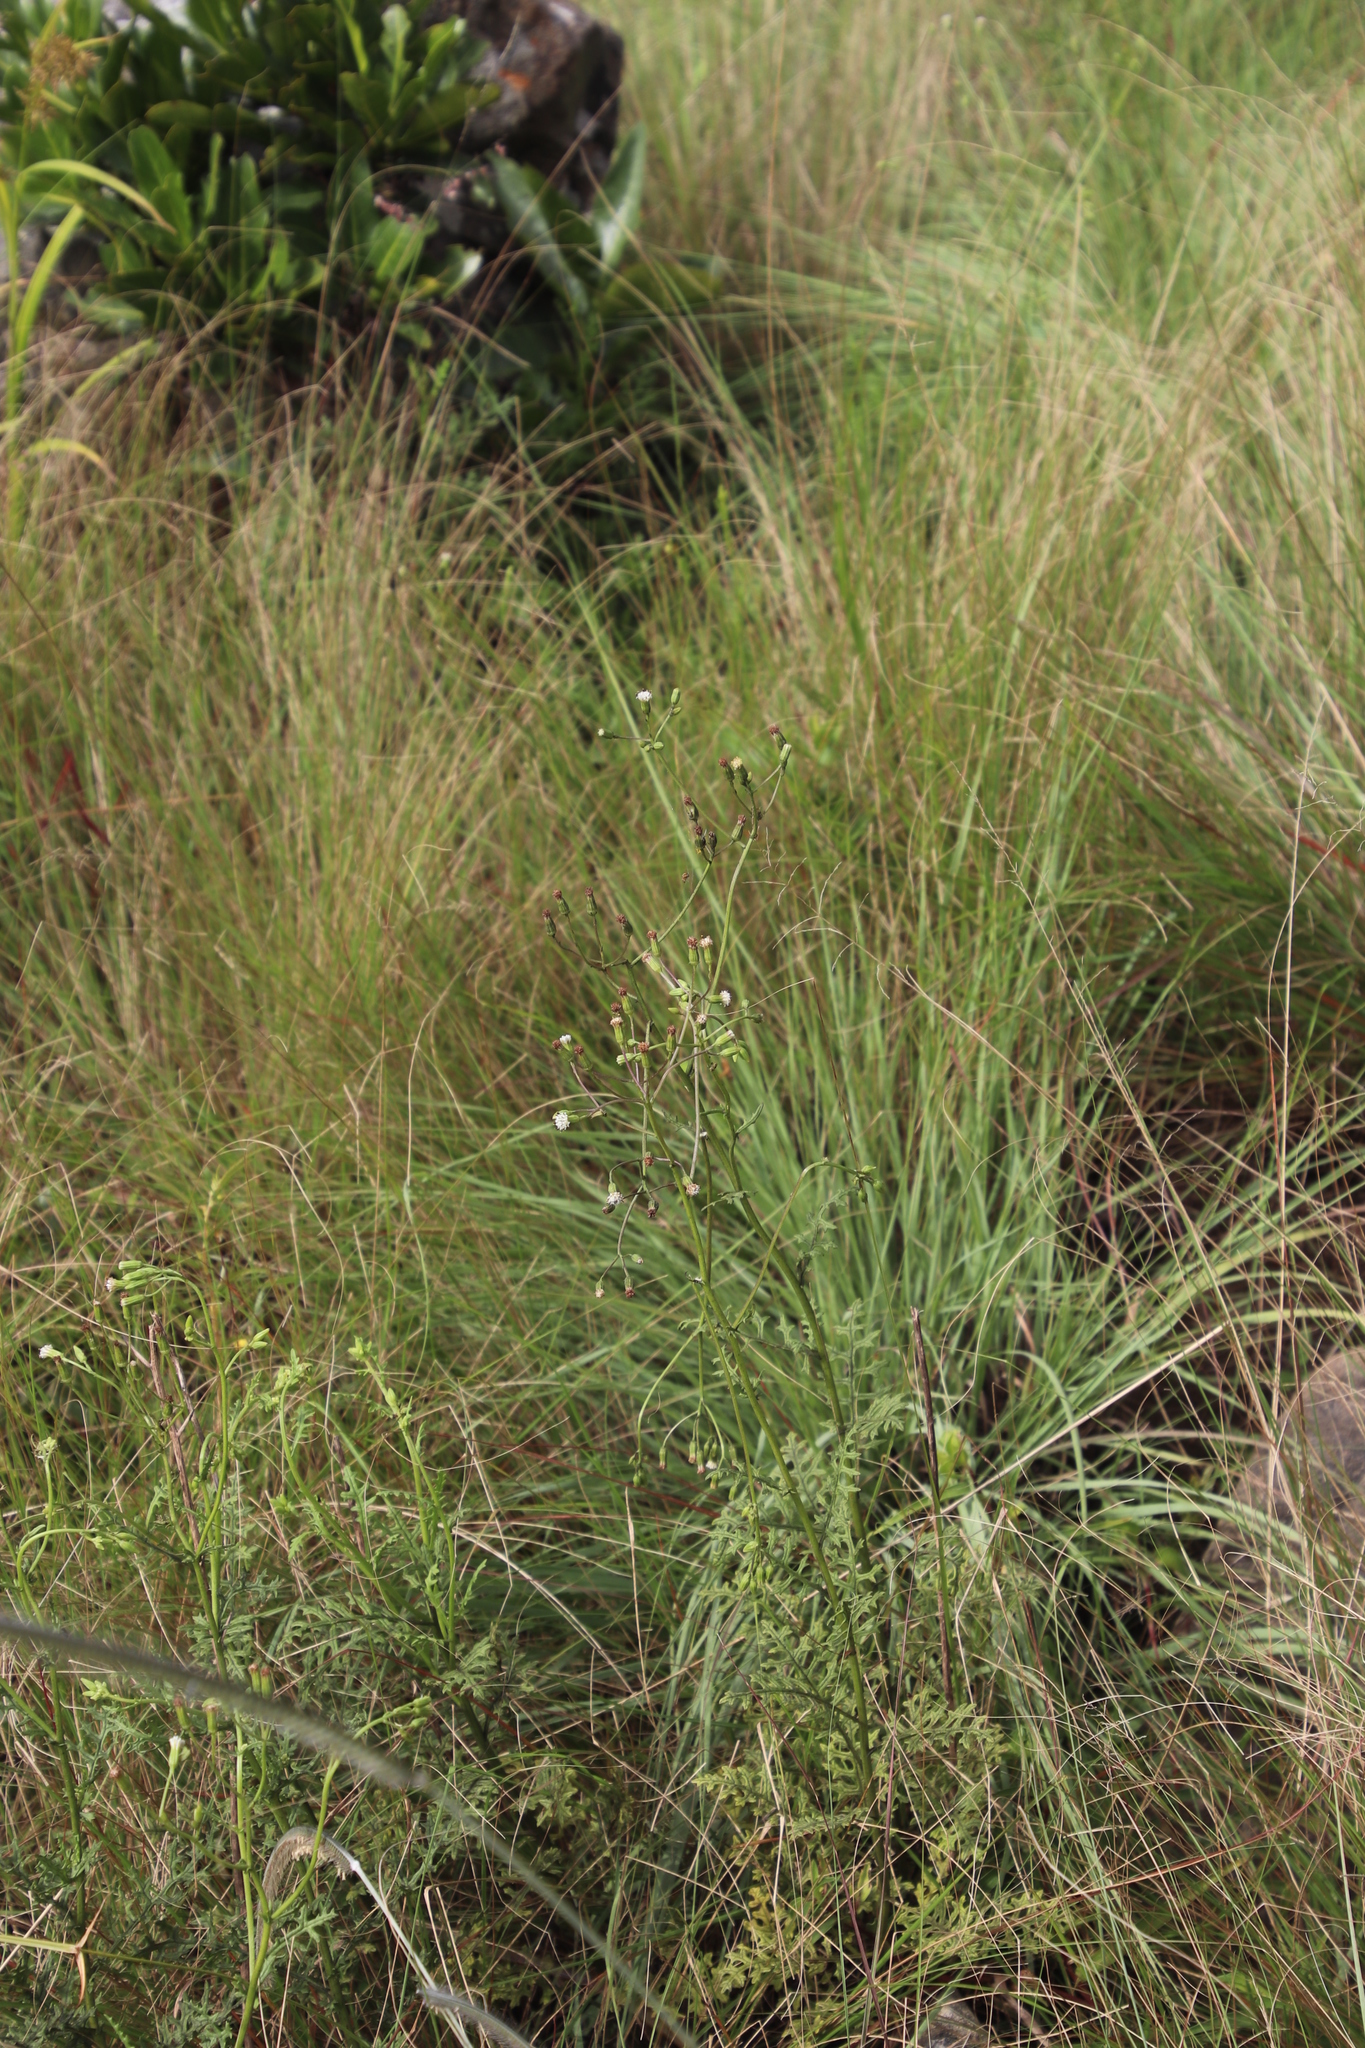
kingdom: Plantae
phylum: Tracheophyta
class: Magnoliopsida
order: Asterales
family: Asteraceae
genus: Senecio
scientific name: Senecio rhyncholaenus
